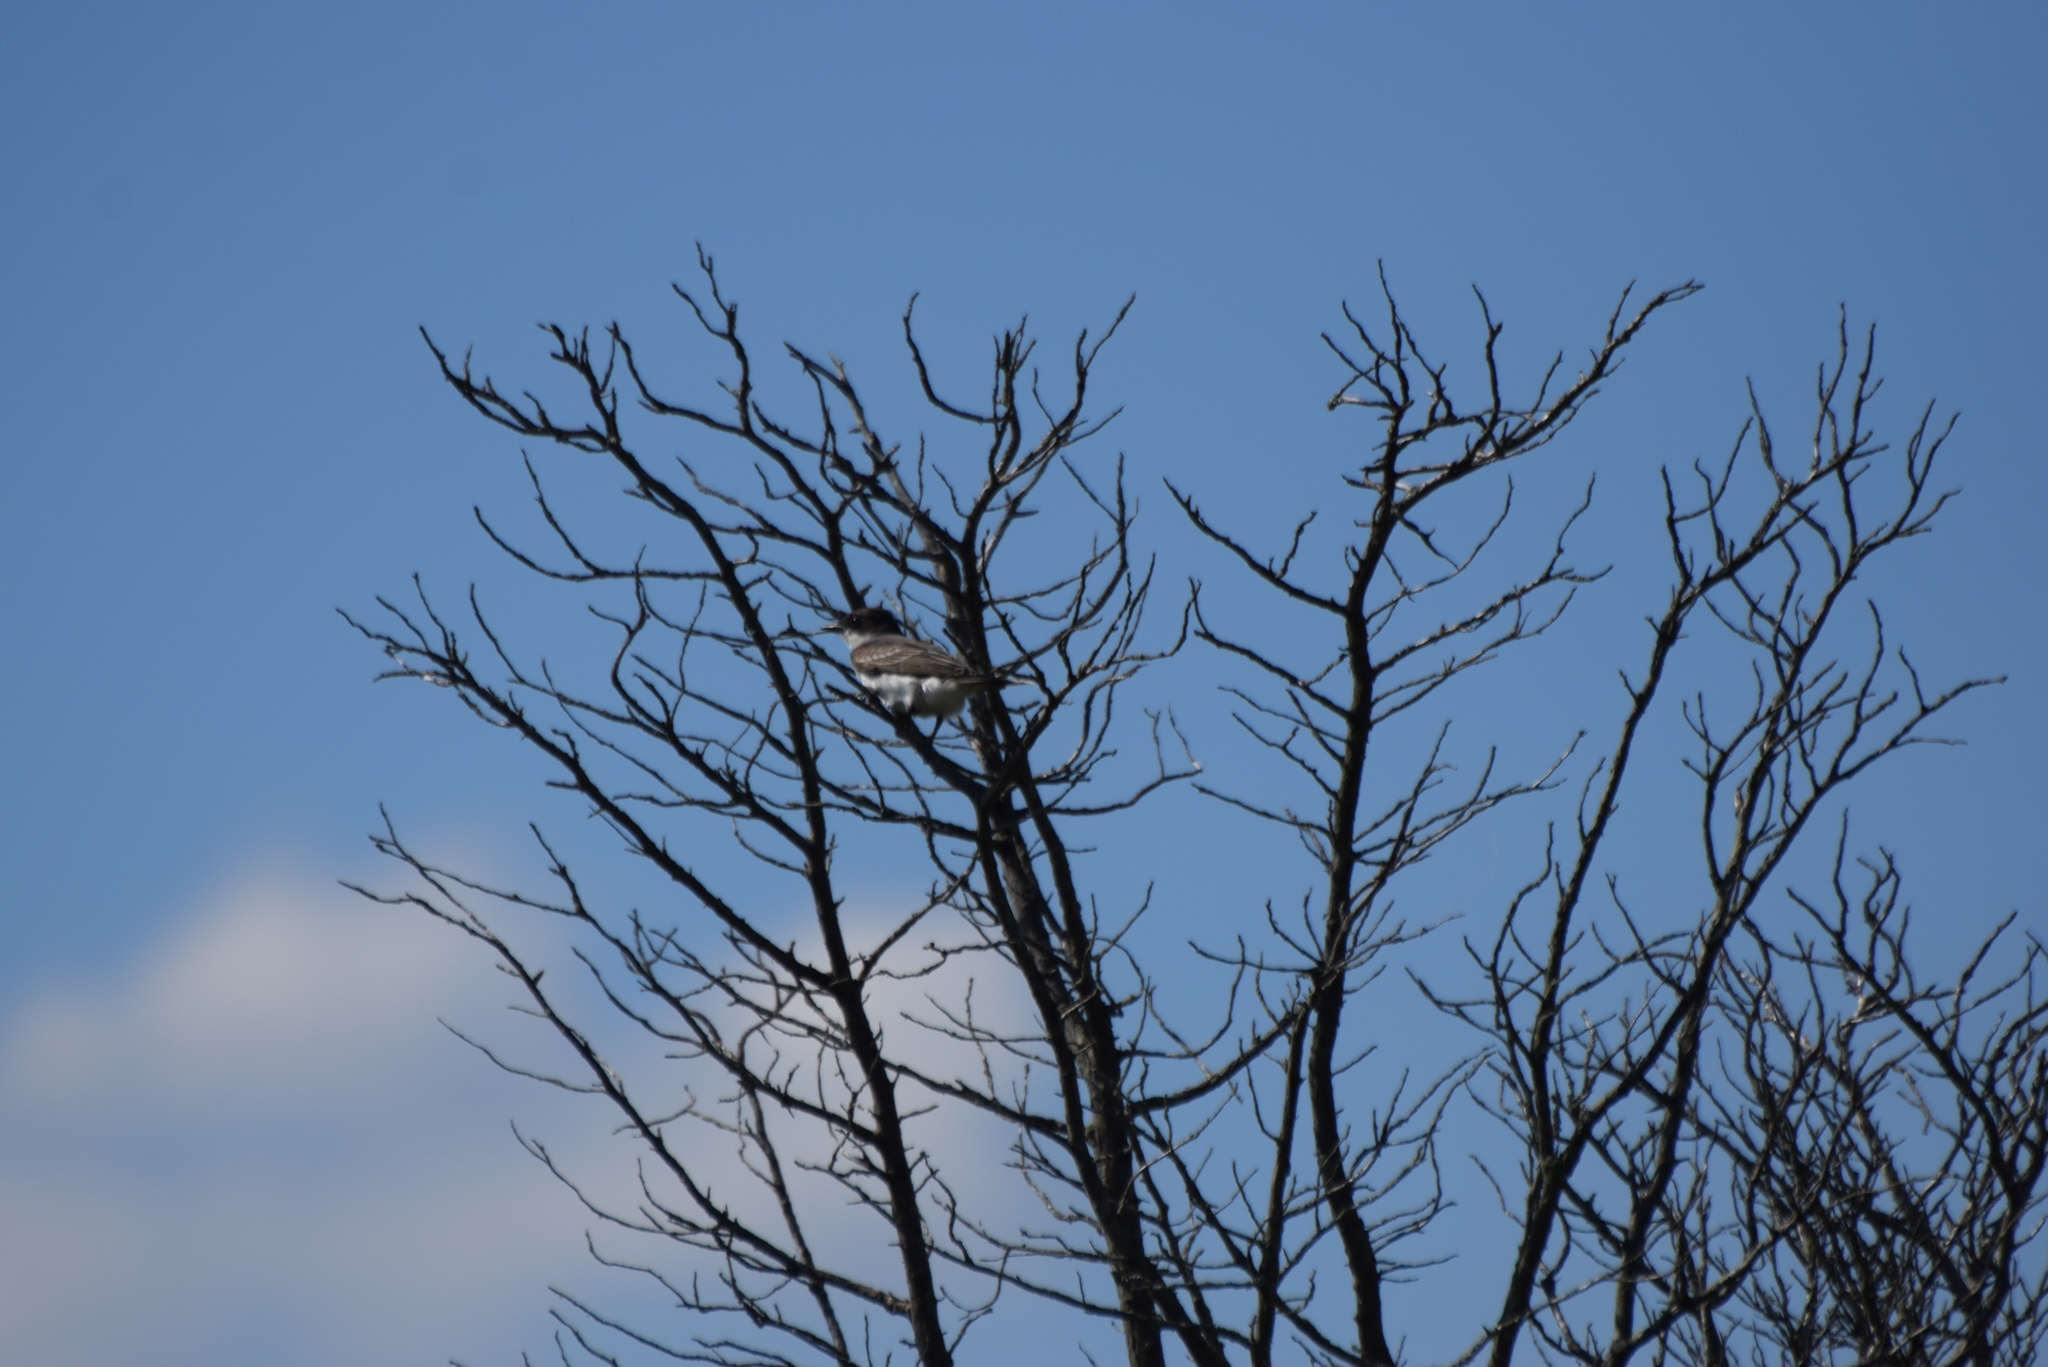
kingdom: Animalia
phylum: Chordata
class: Aves
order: Passeriformes
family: Tyrannidae
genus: Tyrannus
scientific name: Tyrannus tyrannus
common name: Eastern kingbird
